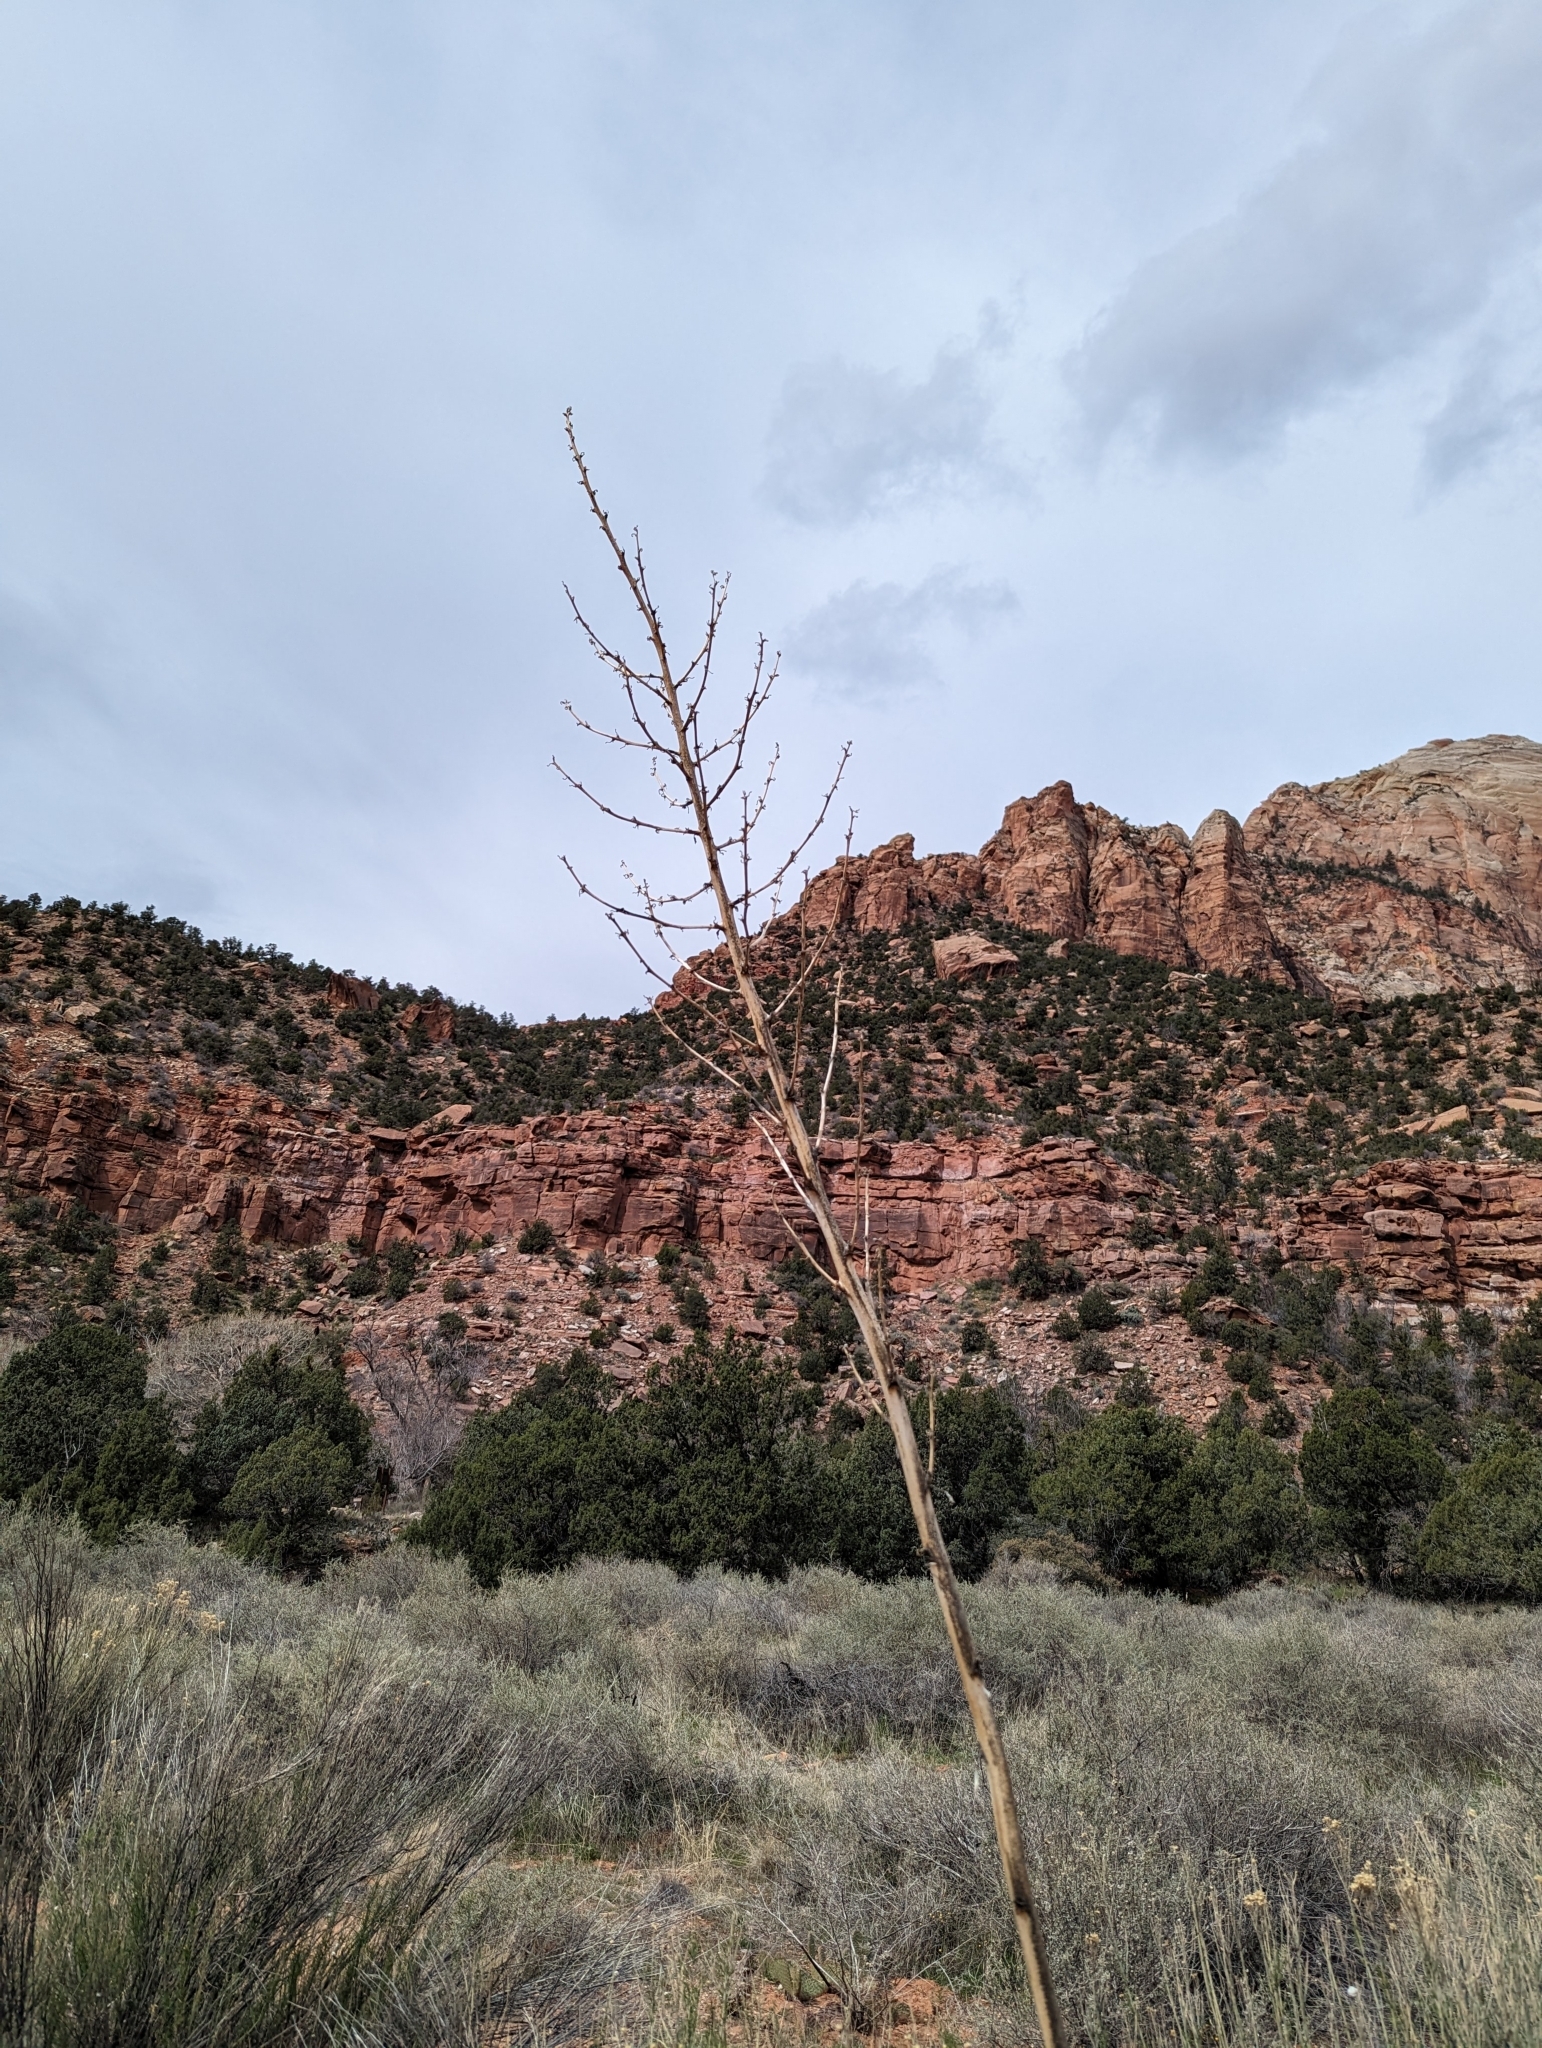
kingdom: Plantae
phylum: Tracheophyta
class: Liliopsida
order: Asparagales
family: Asparagaceae
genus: Yucca
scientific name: Yucca angustissima
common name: Narrowleaf yucca
